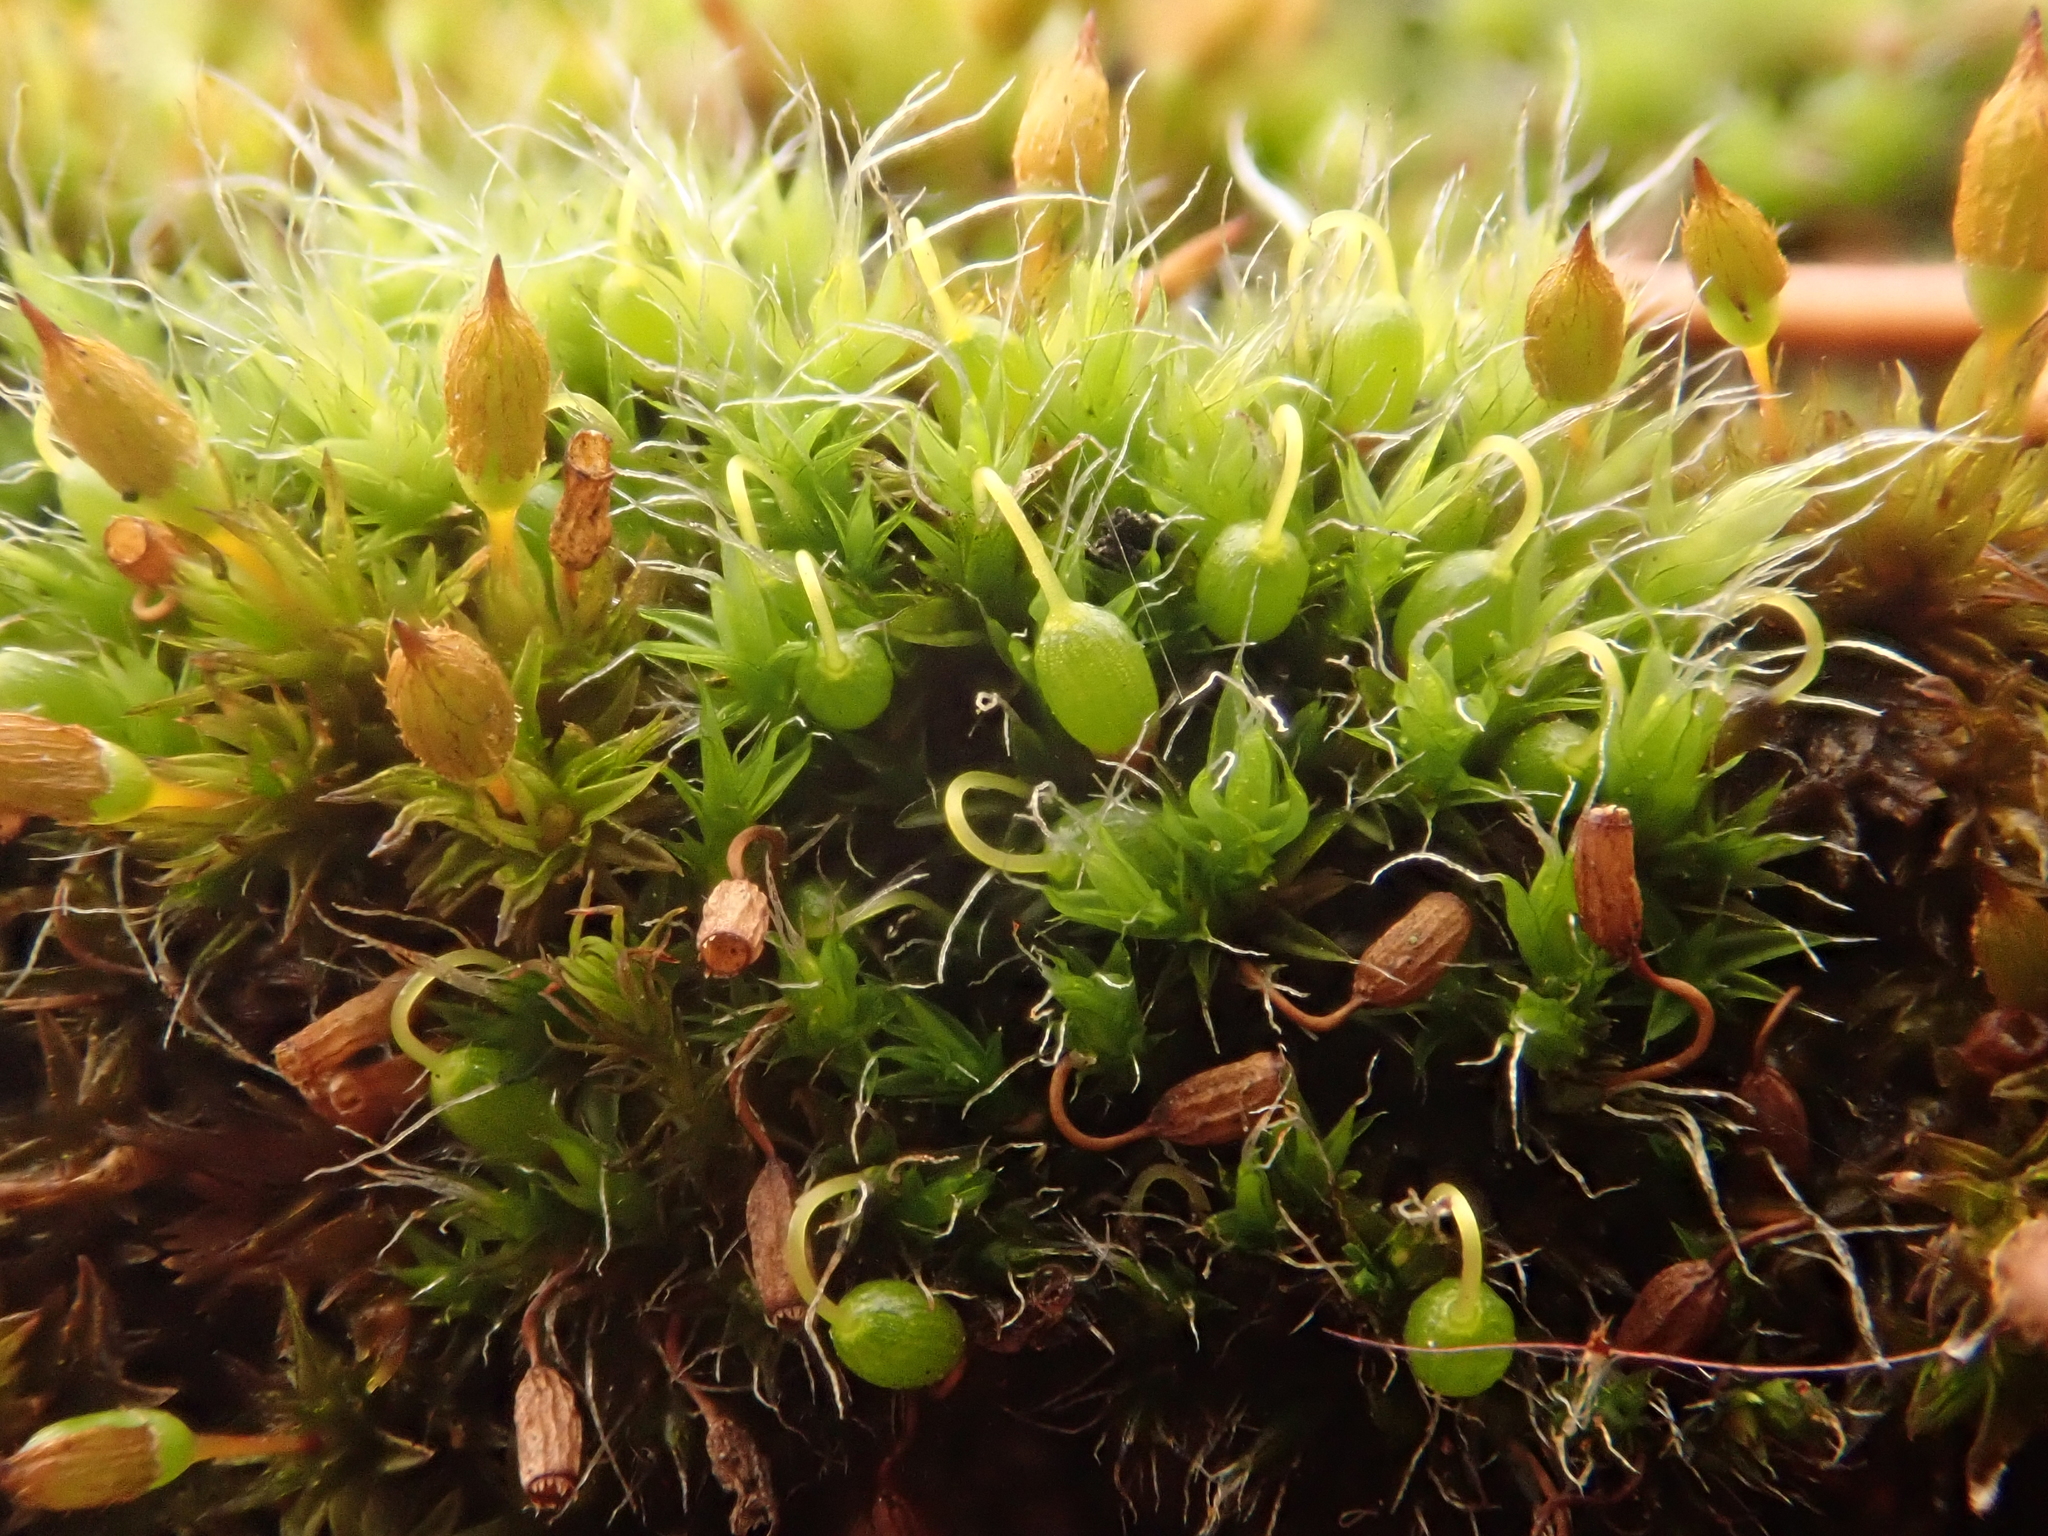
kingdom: Plantae
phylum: Bryophyta
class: Bryopsida
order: Grimmiales
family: Grimmiaceae
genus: Grimmia
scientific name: Grimmia pulvinata
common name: Grey-cushioned grimmia
